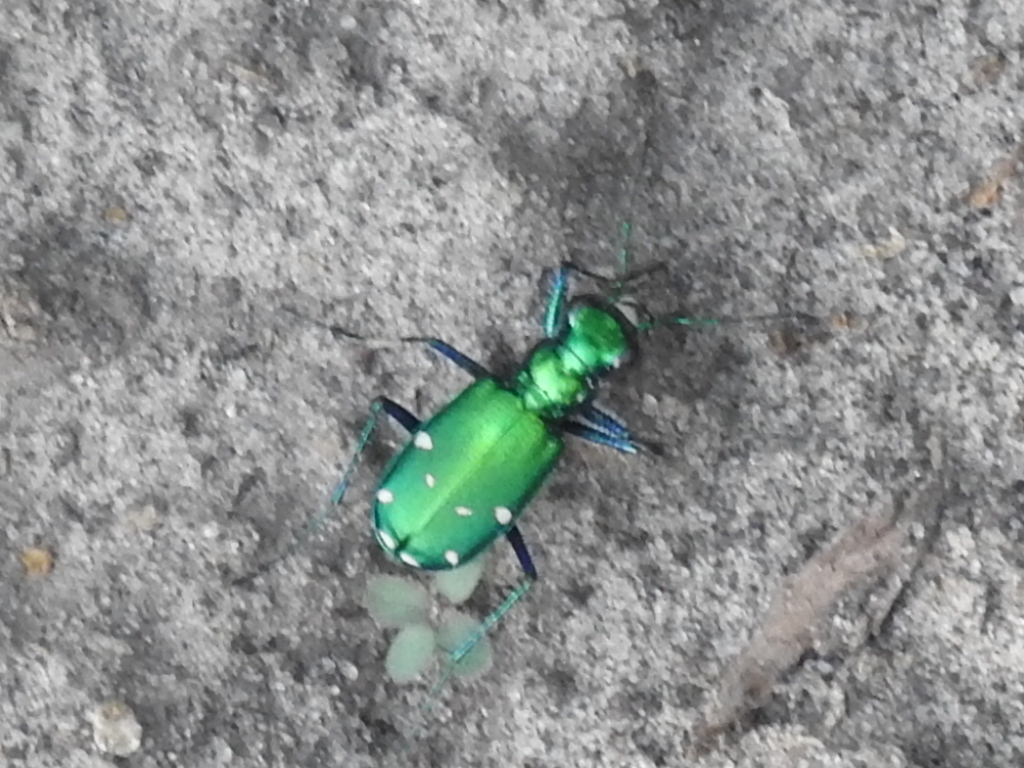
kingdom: Animalia
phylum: Arthropoda
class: Insecta
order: Coleoptera
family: Carabidae
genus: Cicindela
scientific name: Cicindela sexguttata
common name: Six-spotted tiger beetle
